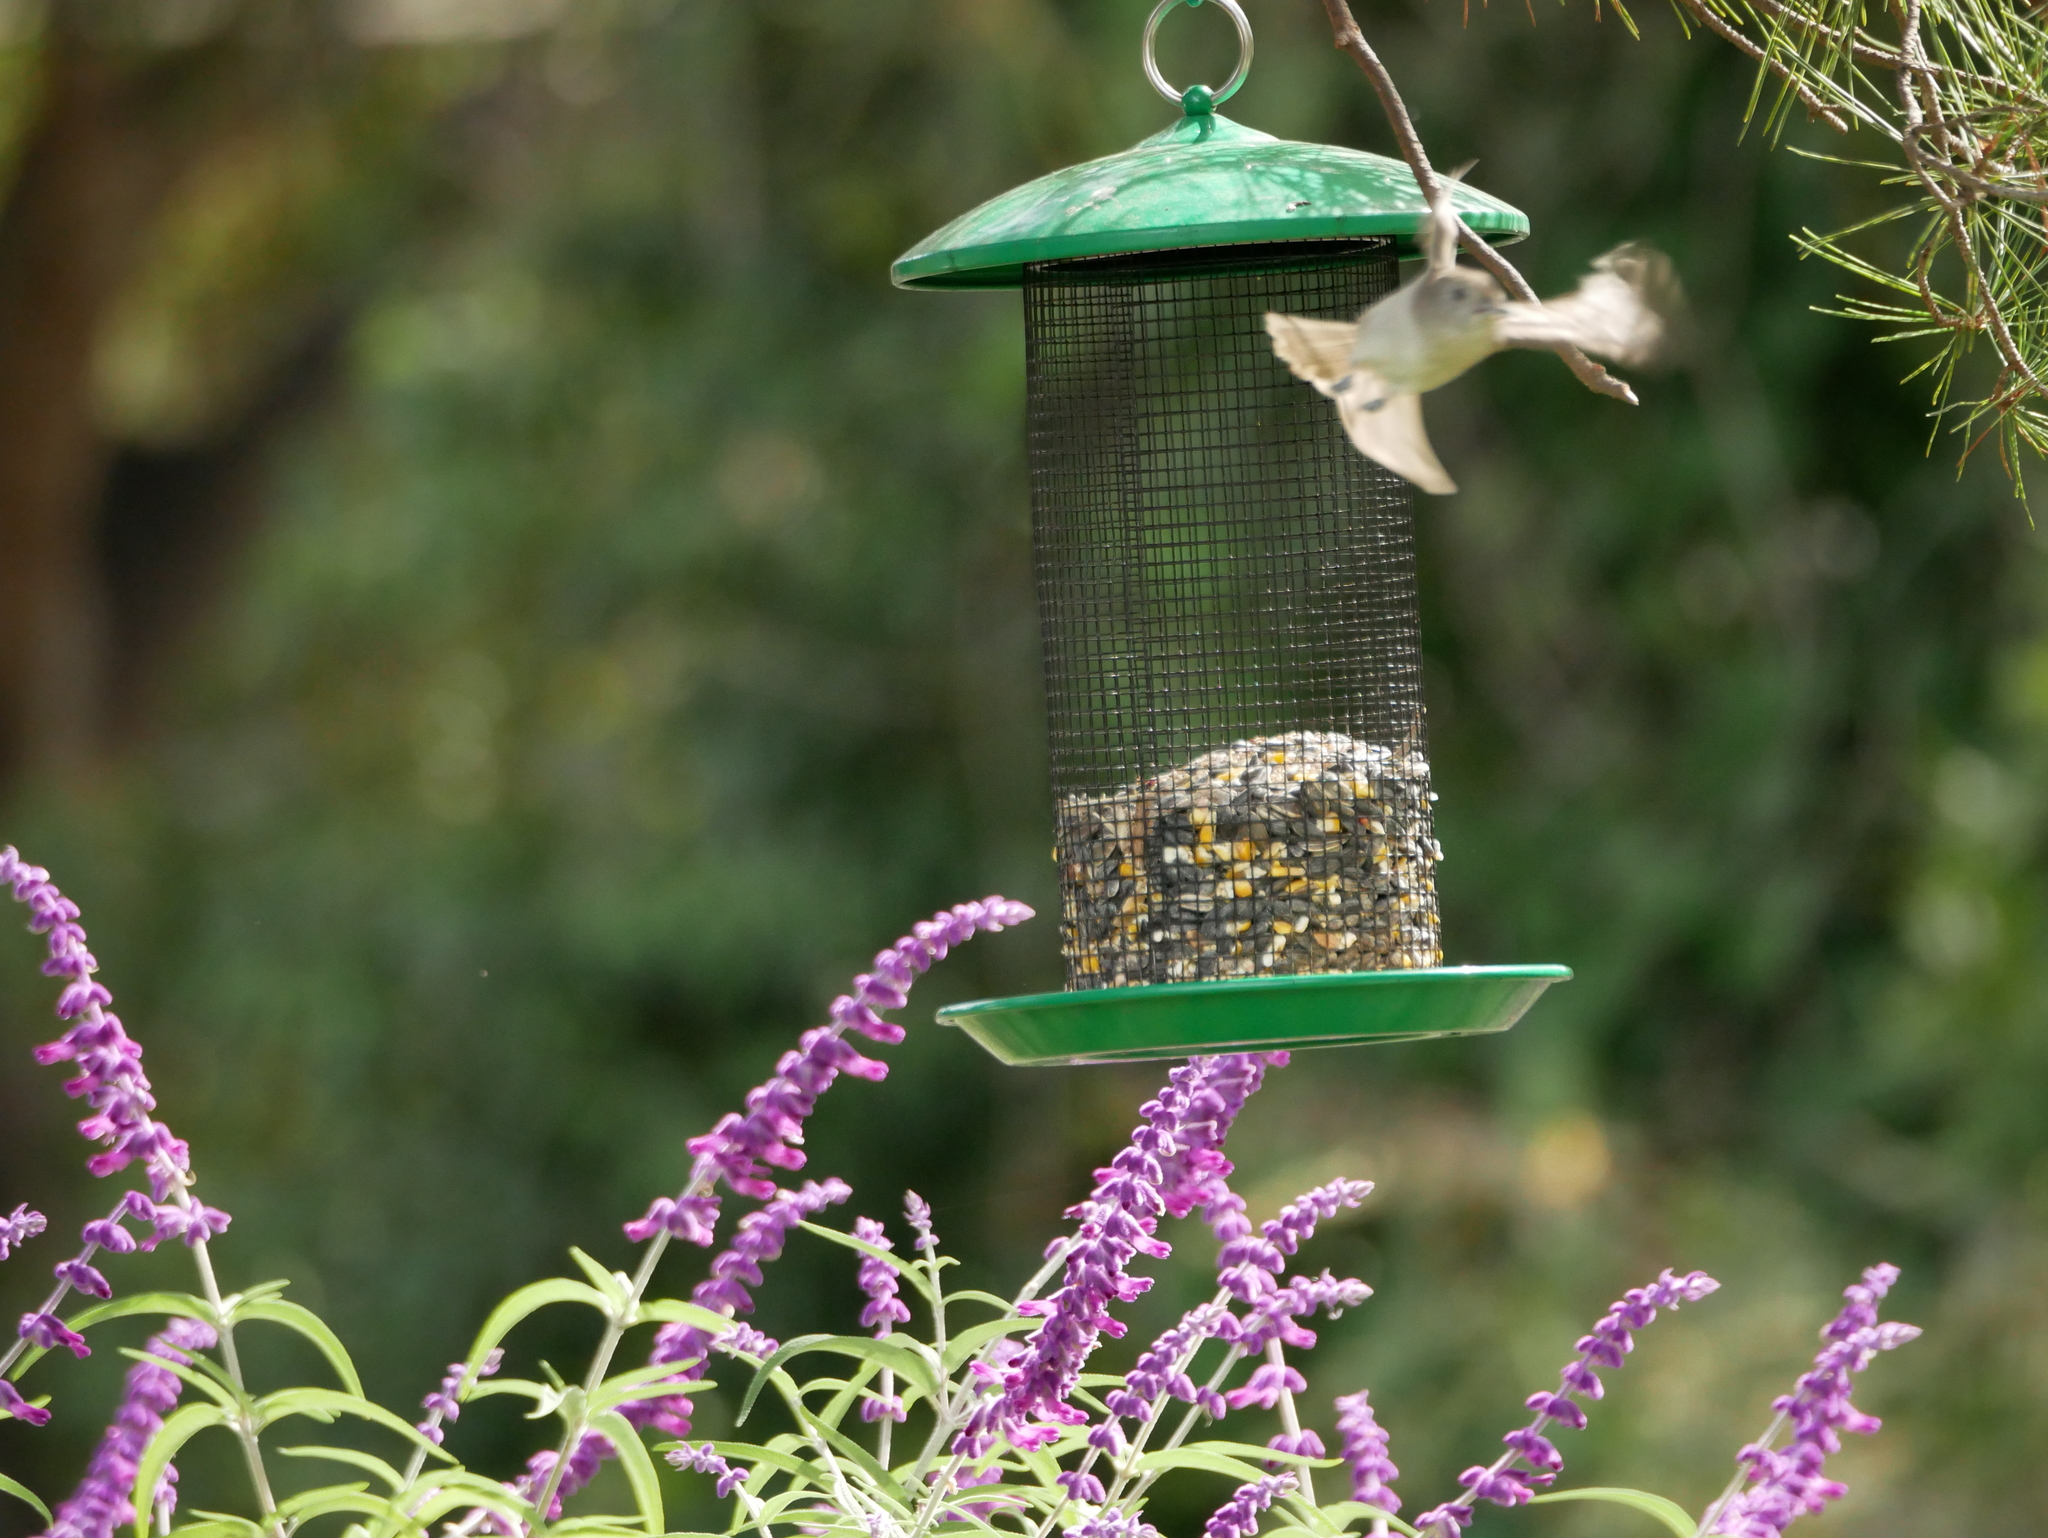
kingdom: Animalia
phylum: Chordata
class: Aves
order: Passeriformes
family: Paridae
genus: Baeolophus
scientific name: Baeolophus inornatus
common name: Oak titmouse
